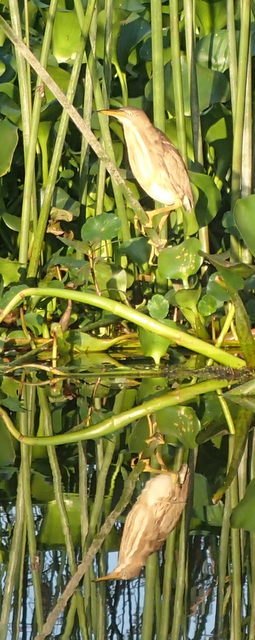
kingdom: Animalia
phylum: Chordata
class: Aves
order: Pelecaniformes
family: Ardeidae
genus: Ixobrychus
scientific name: Ixobrychus exilis
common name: Least bittern
